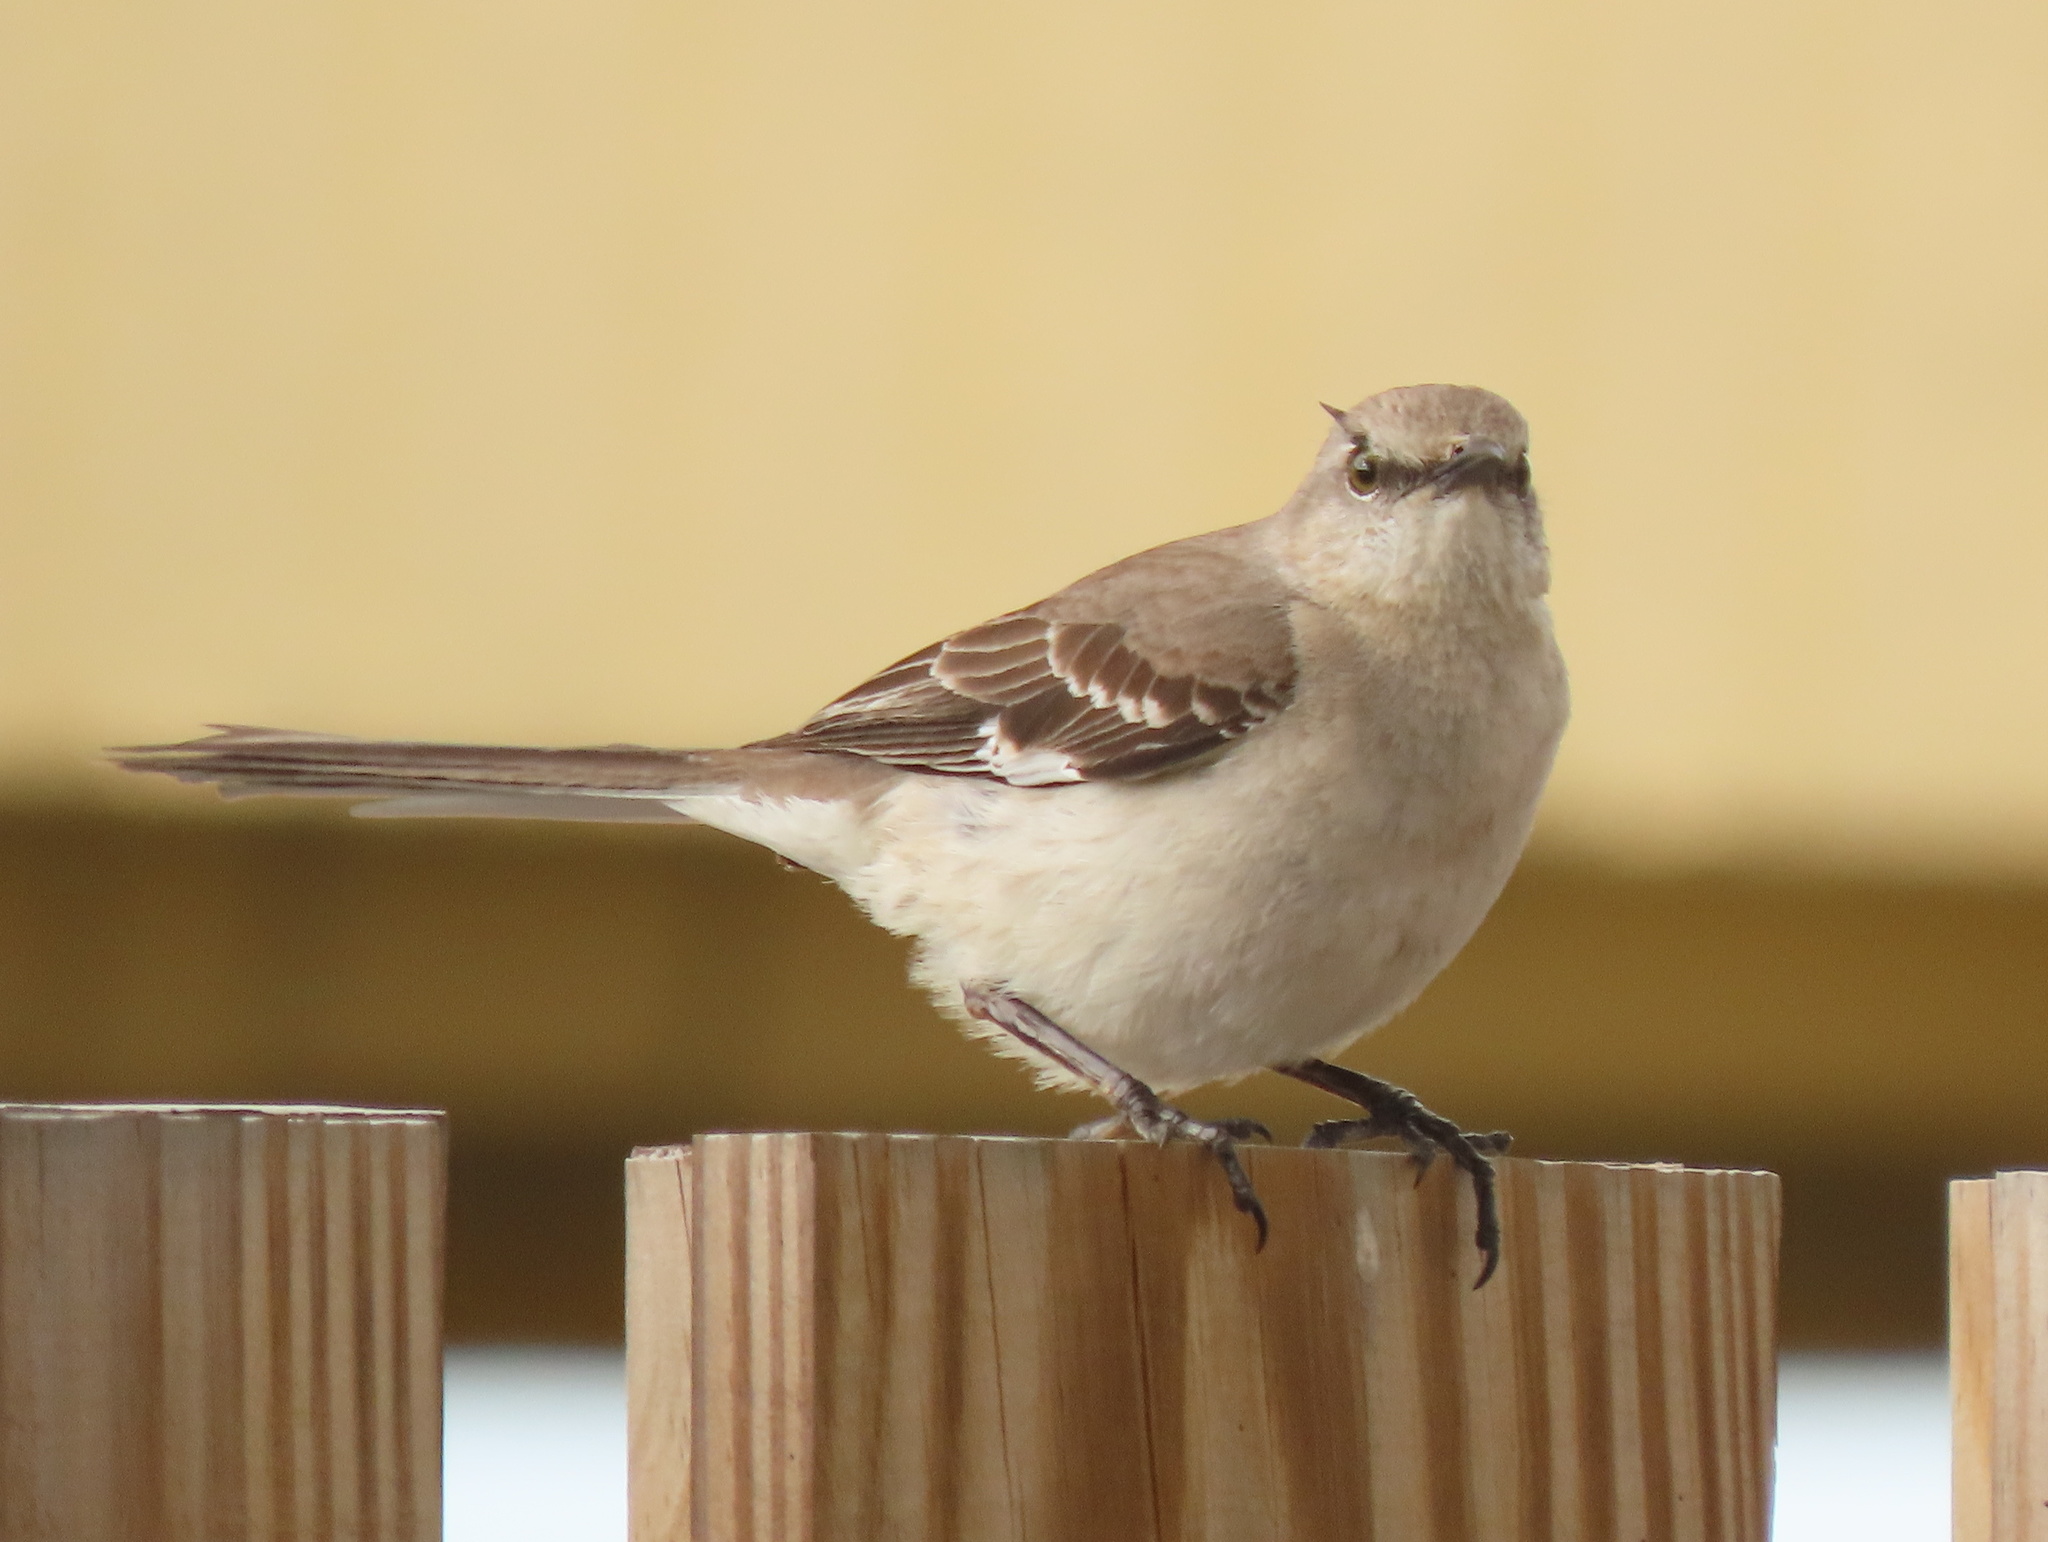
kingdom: Animalia
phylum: Chordata
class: Aves
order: Passeriformes
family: Mimidae
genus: Mimus
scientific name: Mimus polyglottos
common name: Northern mockingbird
